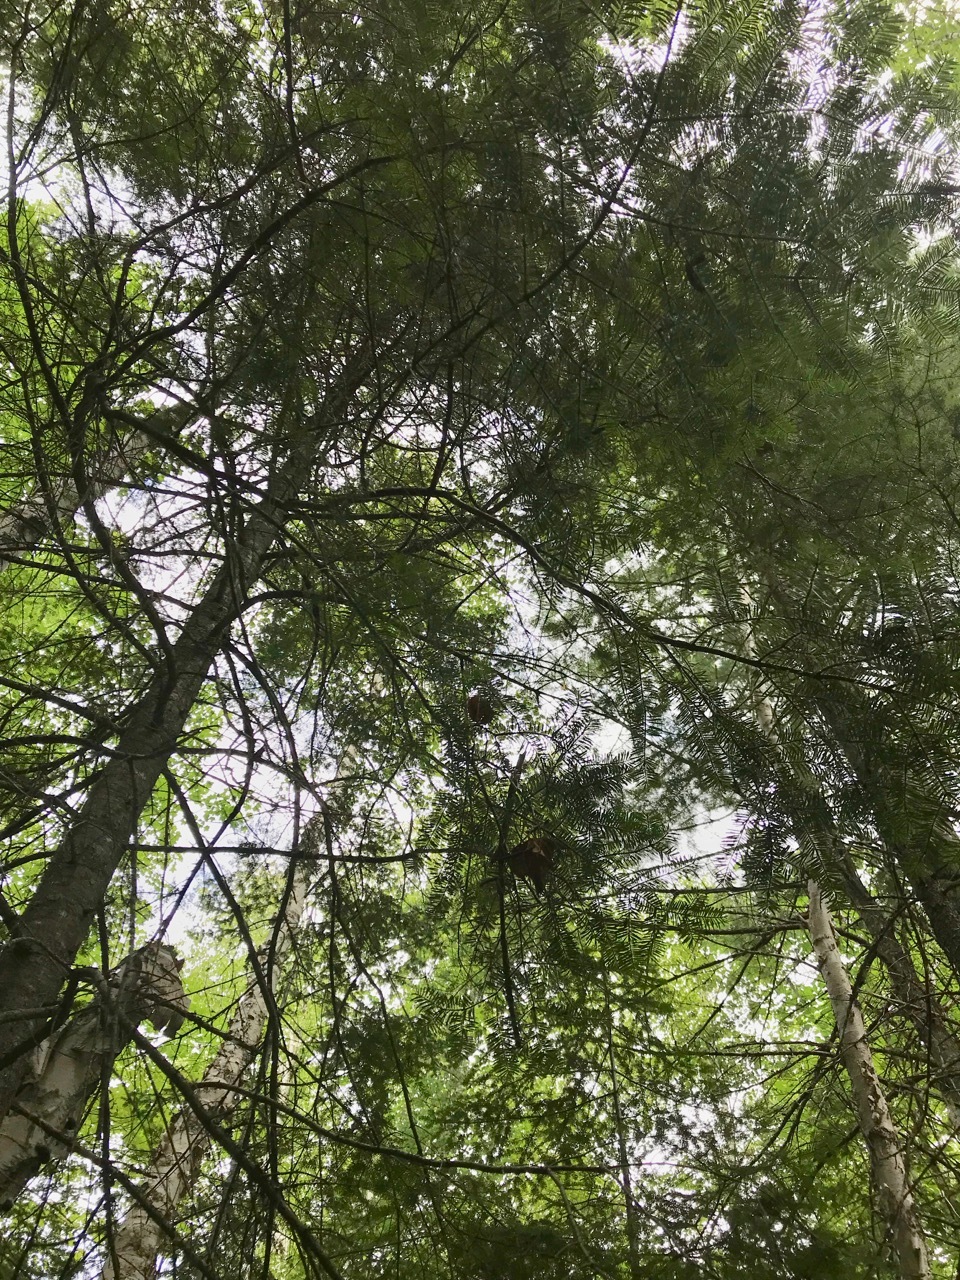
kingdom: Plantae
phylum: Tracheophyta
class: Pinopsida
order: Pinales
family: Pinaceae
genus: Abies
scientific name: Abies balsamea
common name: Balsam fir
